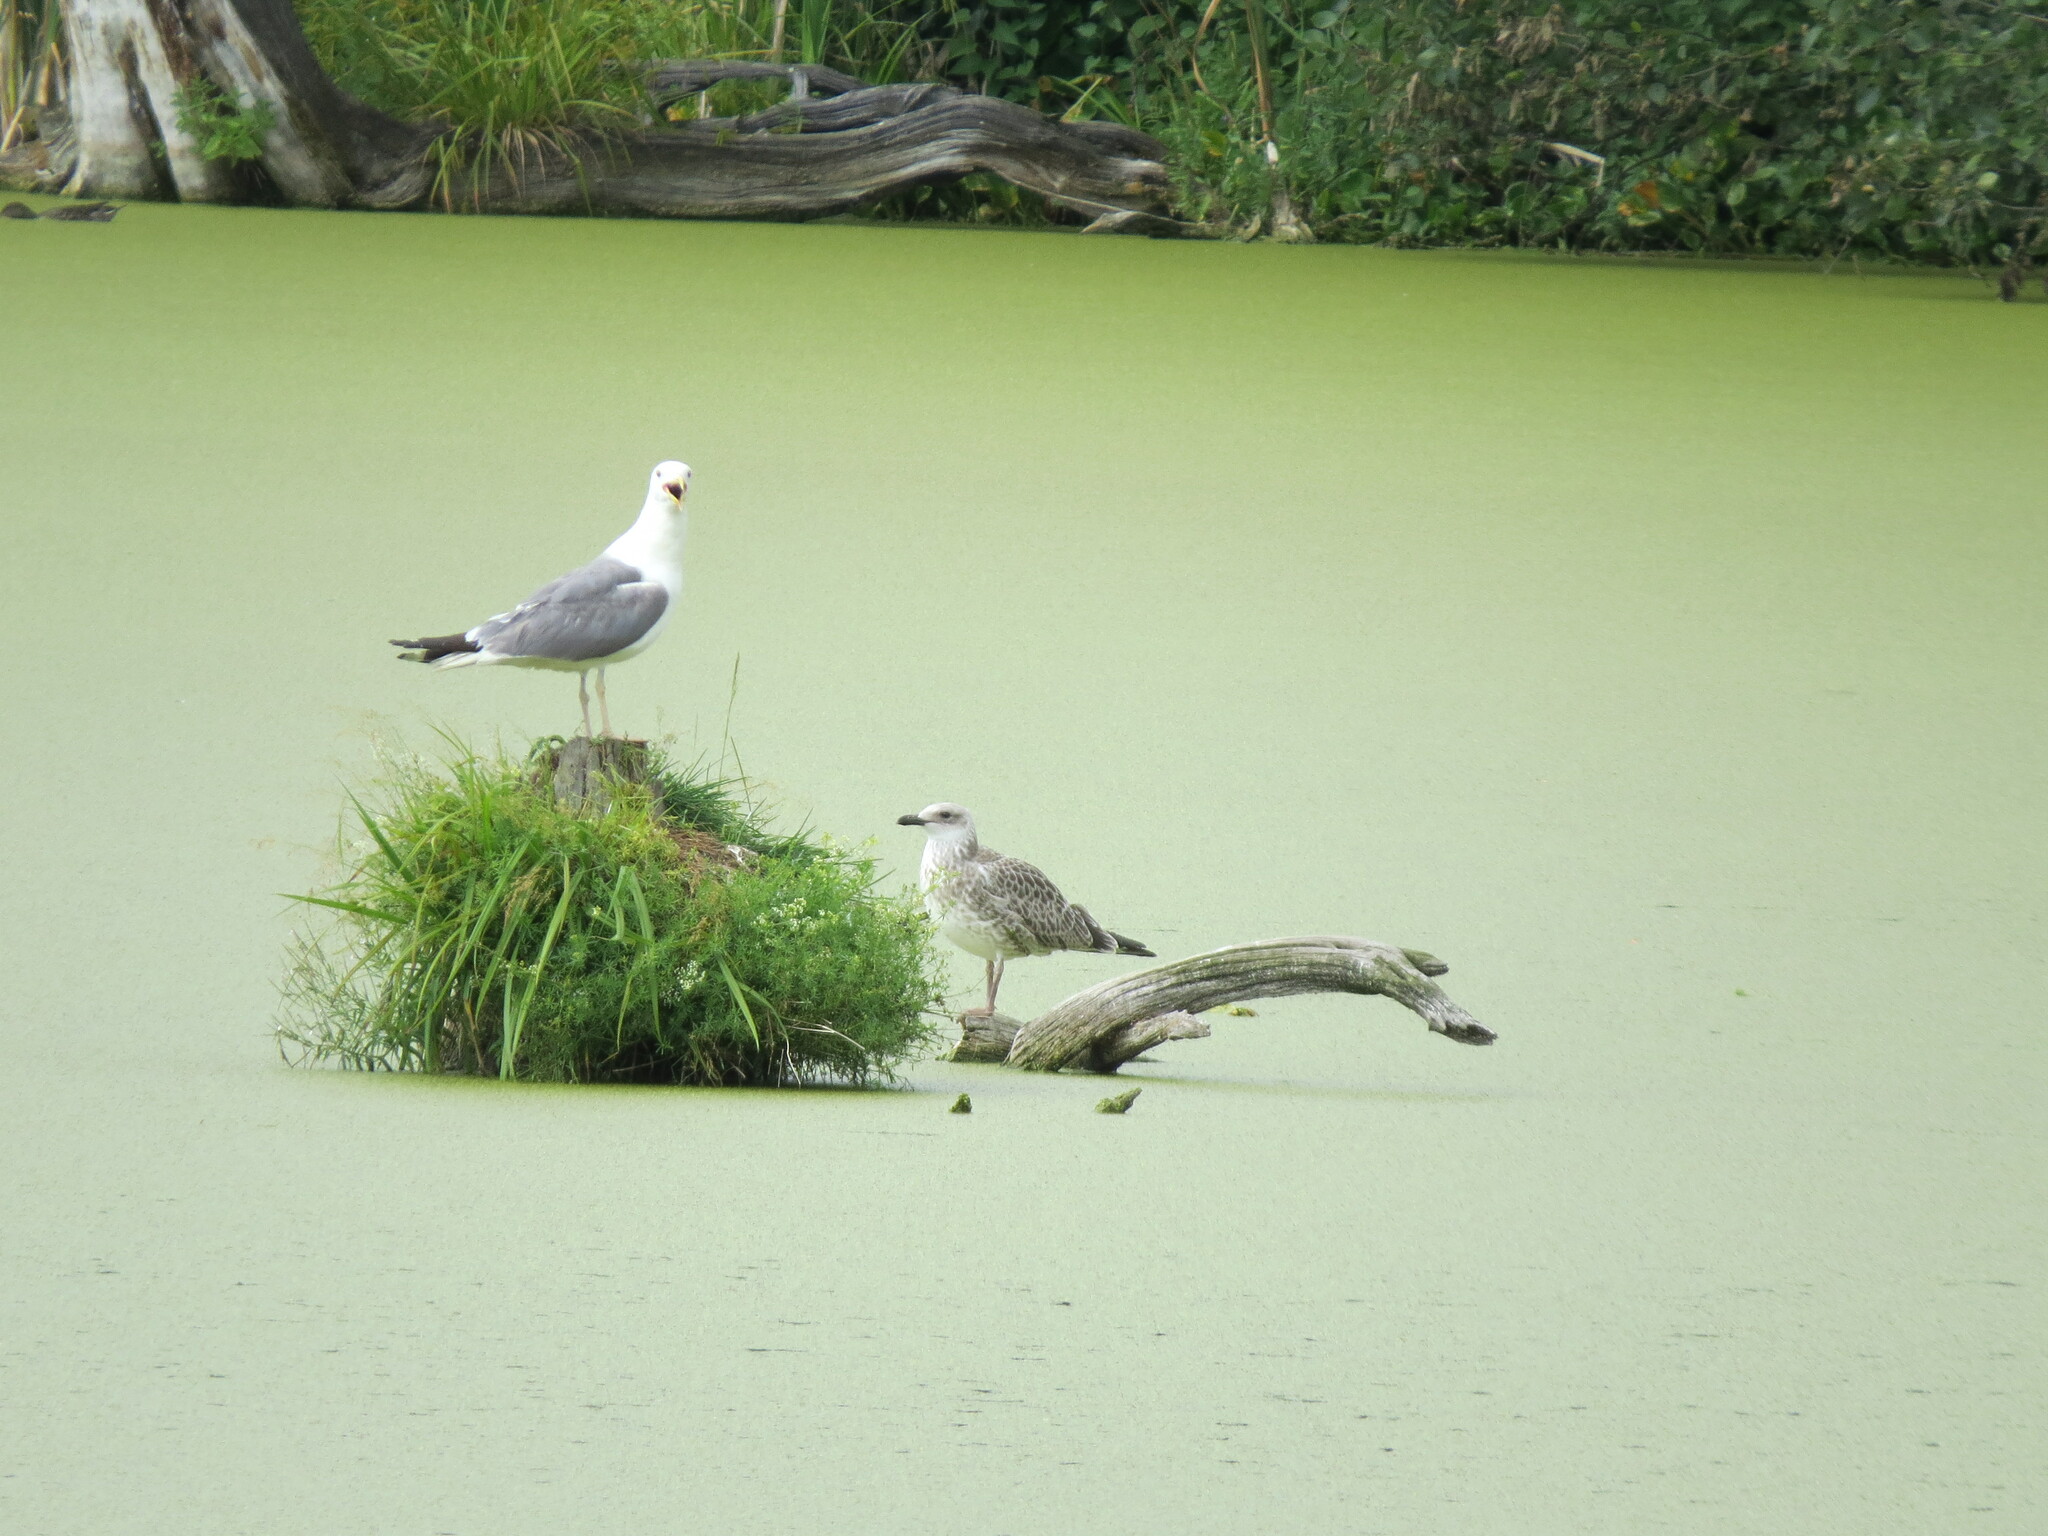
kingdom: Animalia
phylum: Chordata
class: Aves
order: Charadriiformes
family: Laridae
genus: Larus
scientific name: Larus fuscus
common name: Lesser black-backed gull
